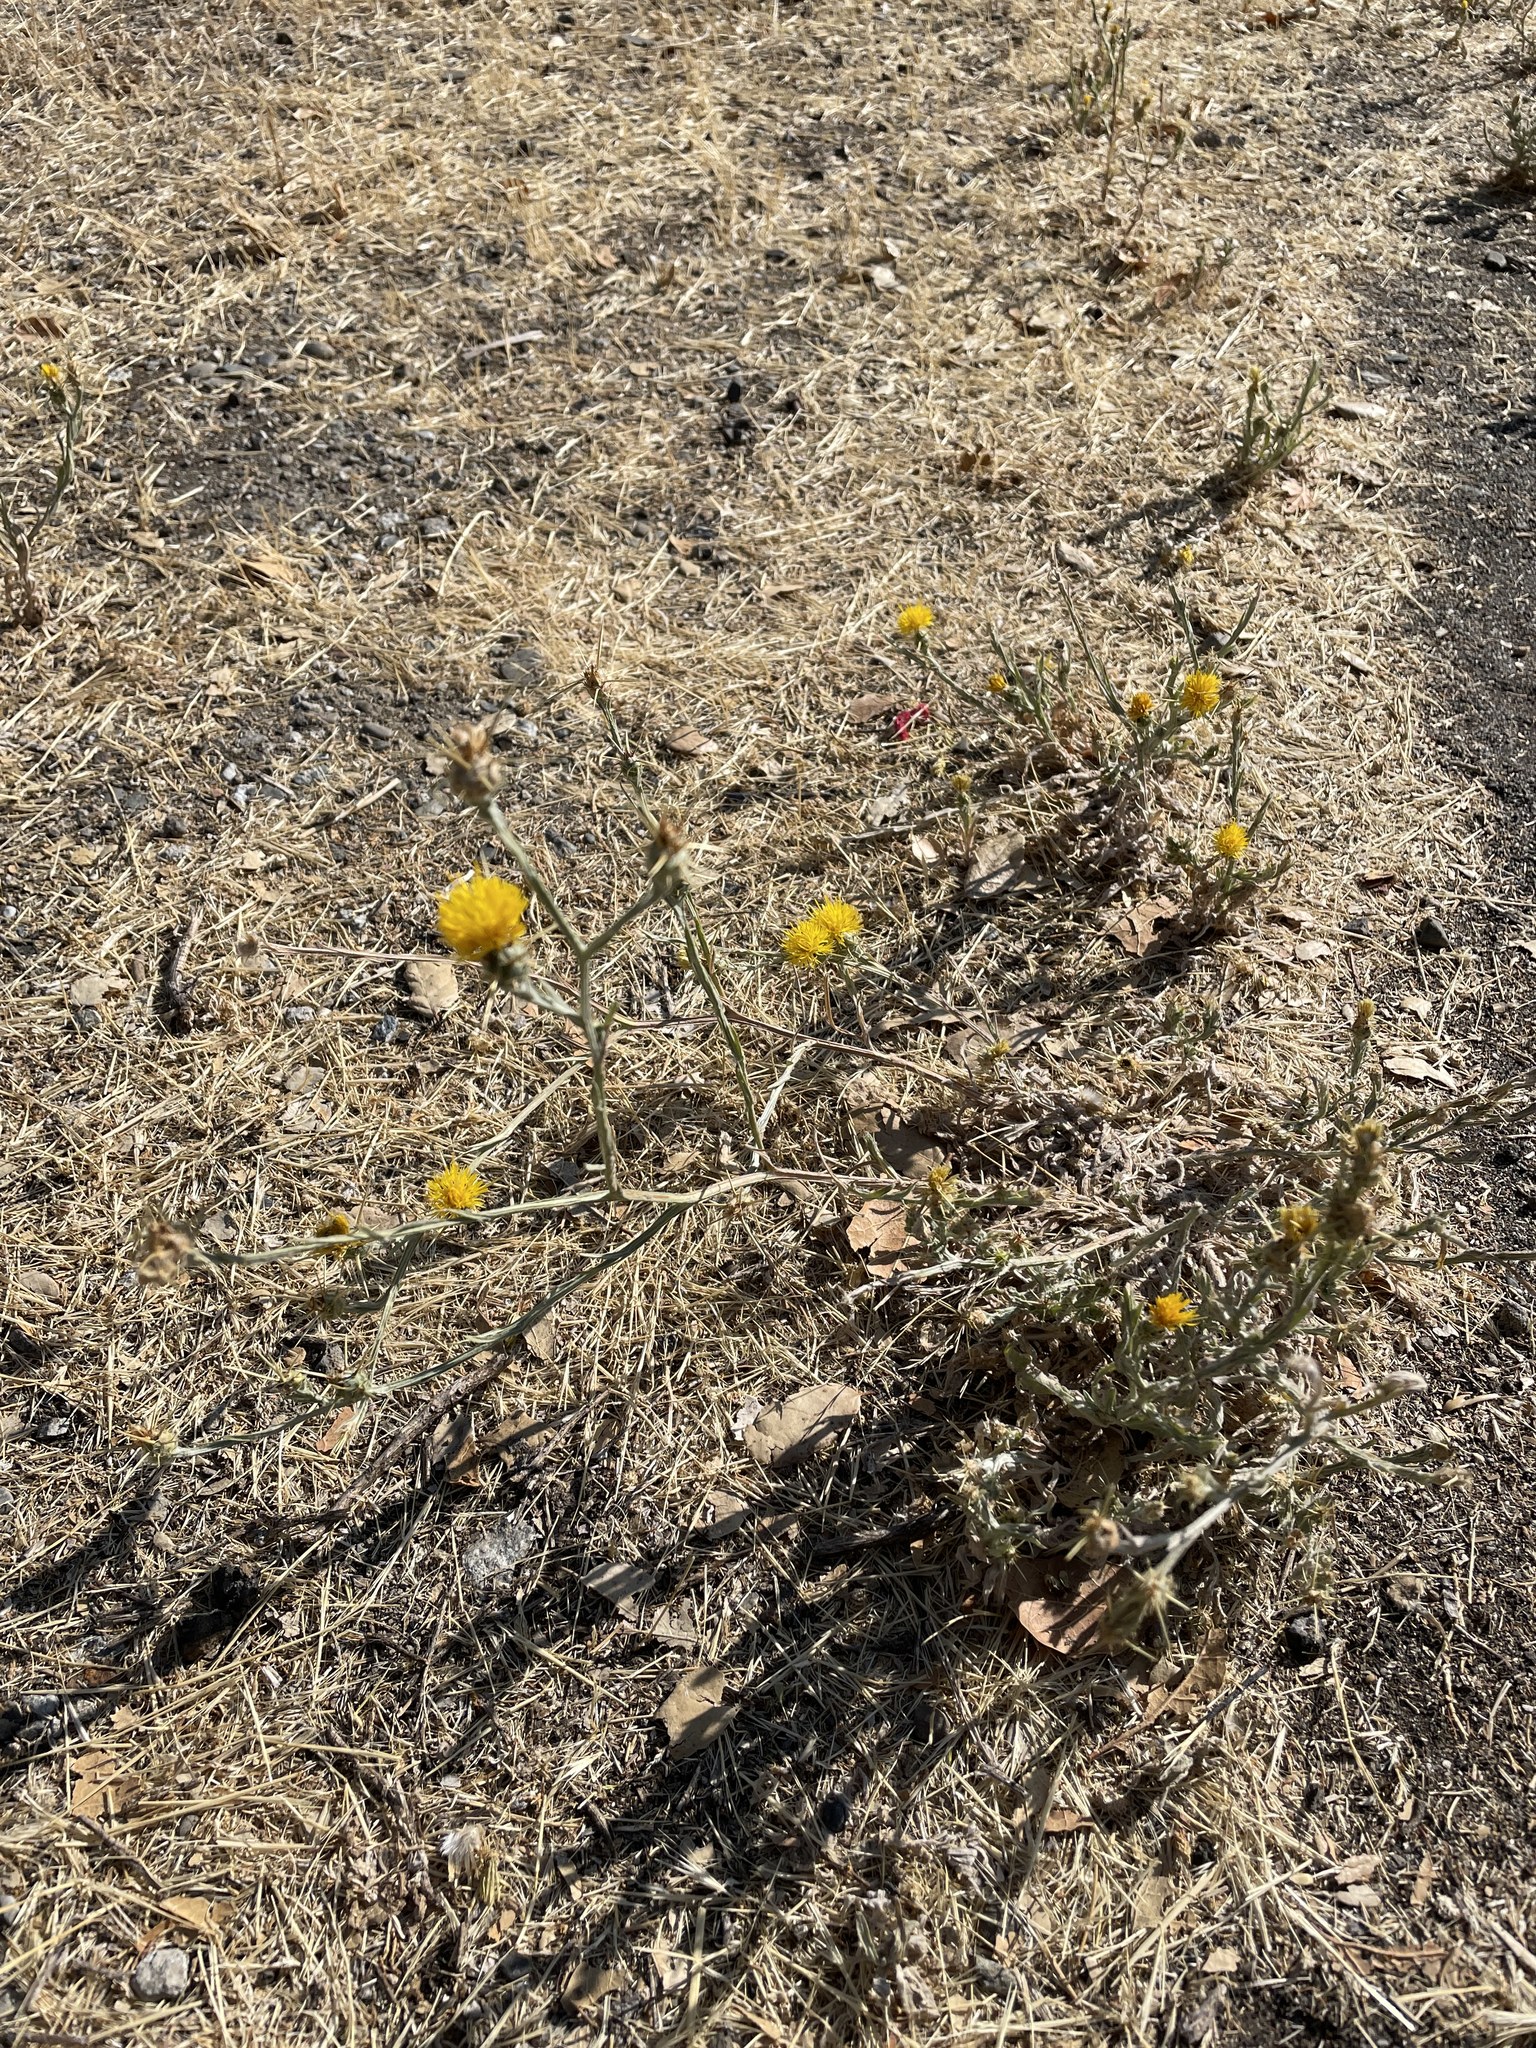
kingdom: Plantae
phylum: Tracheophyta
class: Magnoliopsida
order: Asterales
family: Asteraceae
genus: Centaurea
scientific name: Centaurea solstitialis
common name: Yellow star-thistle
